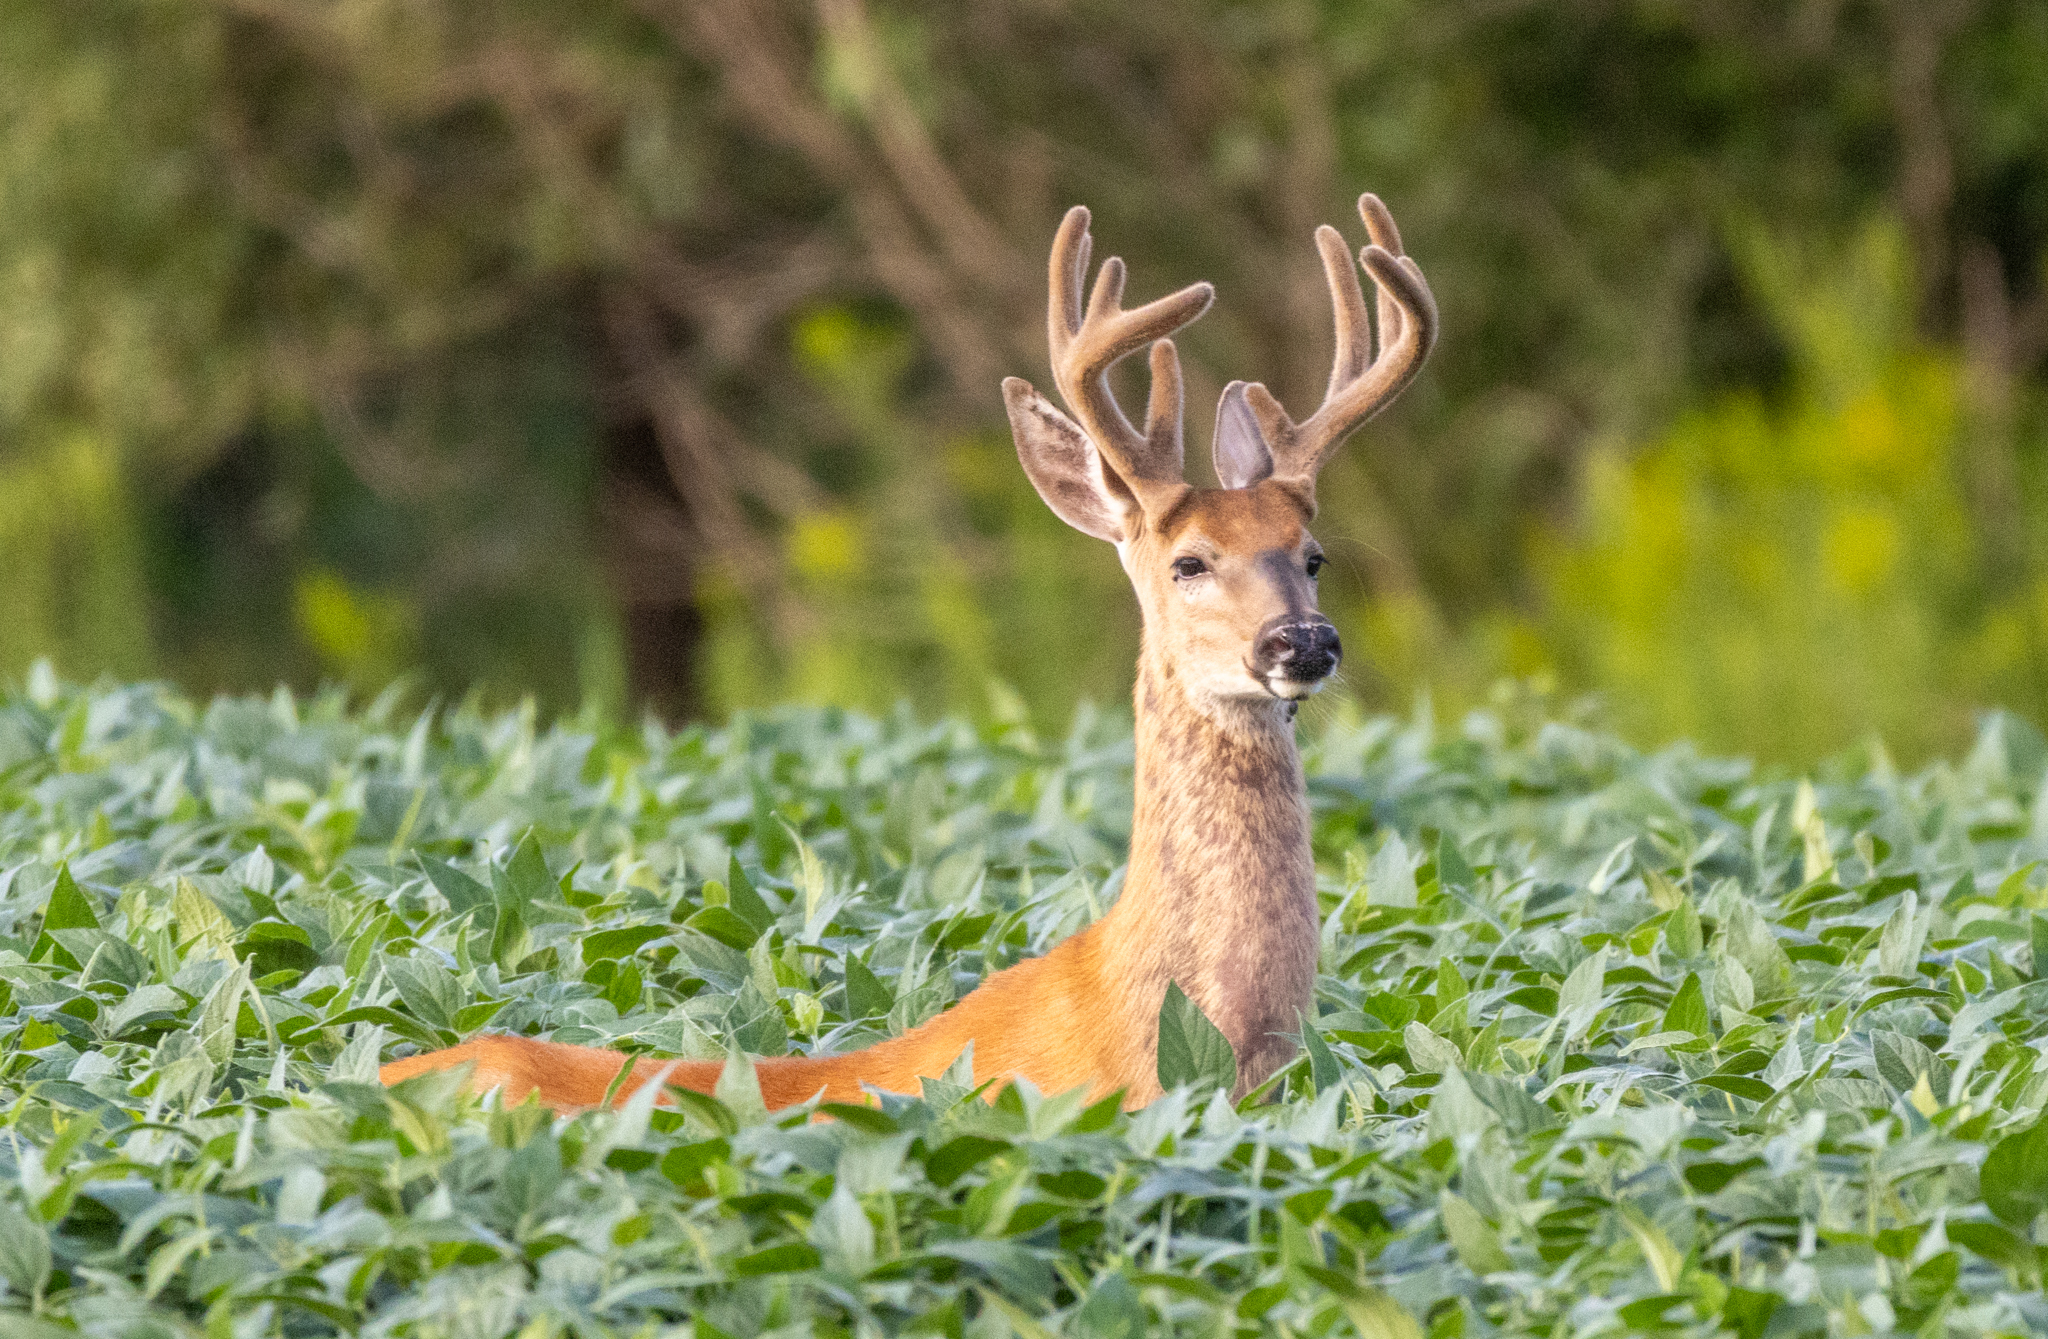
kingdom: Animalia
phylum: Chordata
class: Mammalia
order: Artiodactyla
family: Cervidae
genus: Odocoileus
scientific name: Odocoileus virginianus
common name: White-tailed deer
